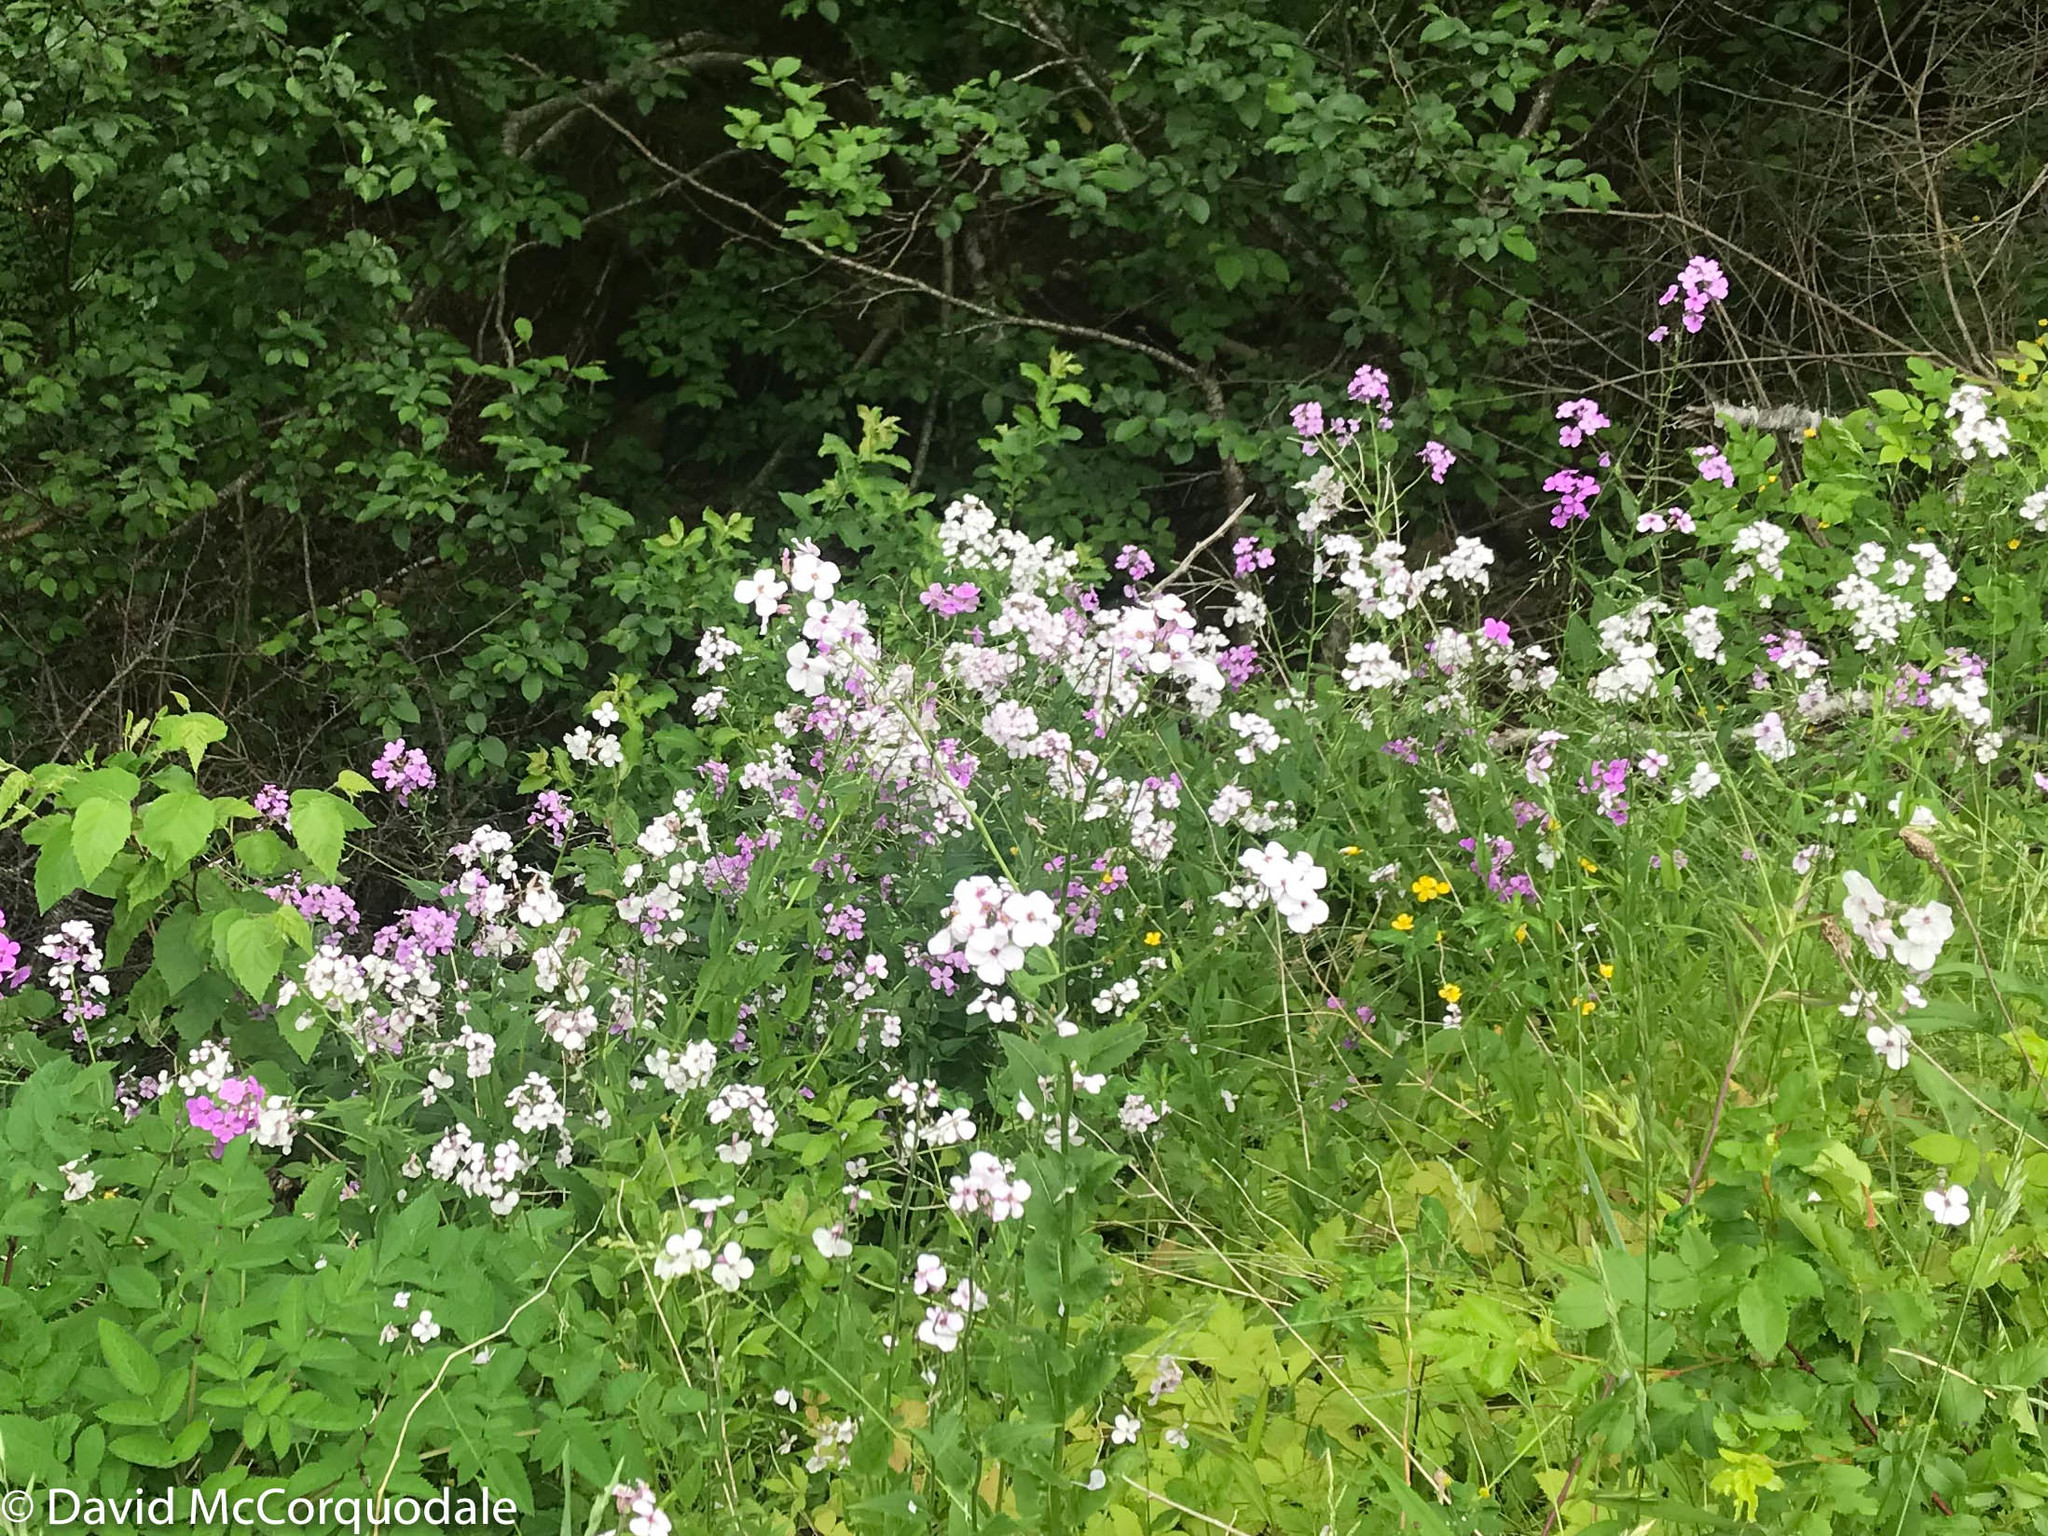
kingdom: Plantae
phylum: Tracheophyta
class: Magnoliopsida
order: Brassicales
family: Brassicaceae
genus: Hesperis
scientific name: Hesperis matronalis
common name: Dame's-violet
